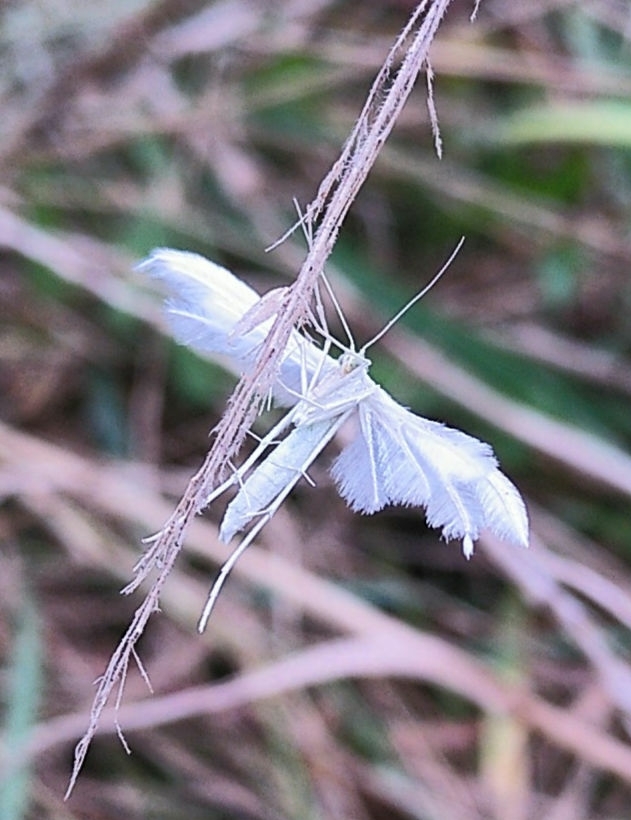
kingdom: Animalia
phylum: Arthropoda
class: Insecta
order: Lepidoptera
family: Pterophoridae
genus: Pterophorus
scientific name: Pterophorus pentadactyla
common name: White plume moth
